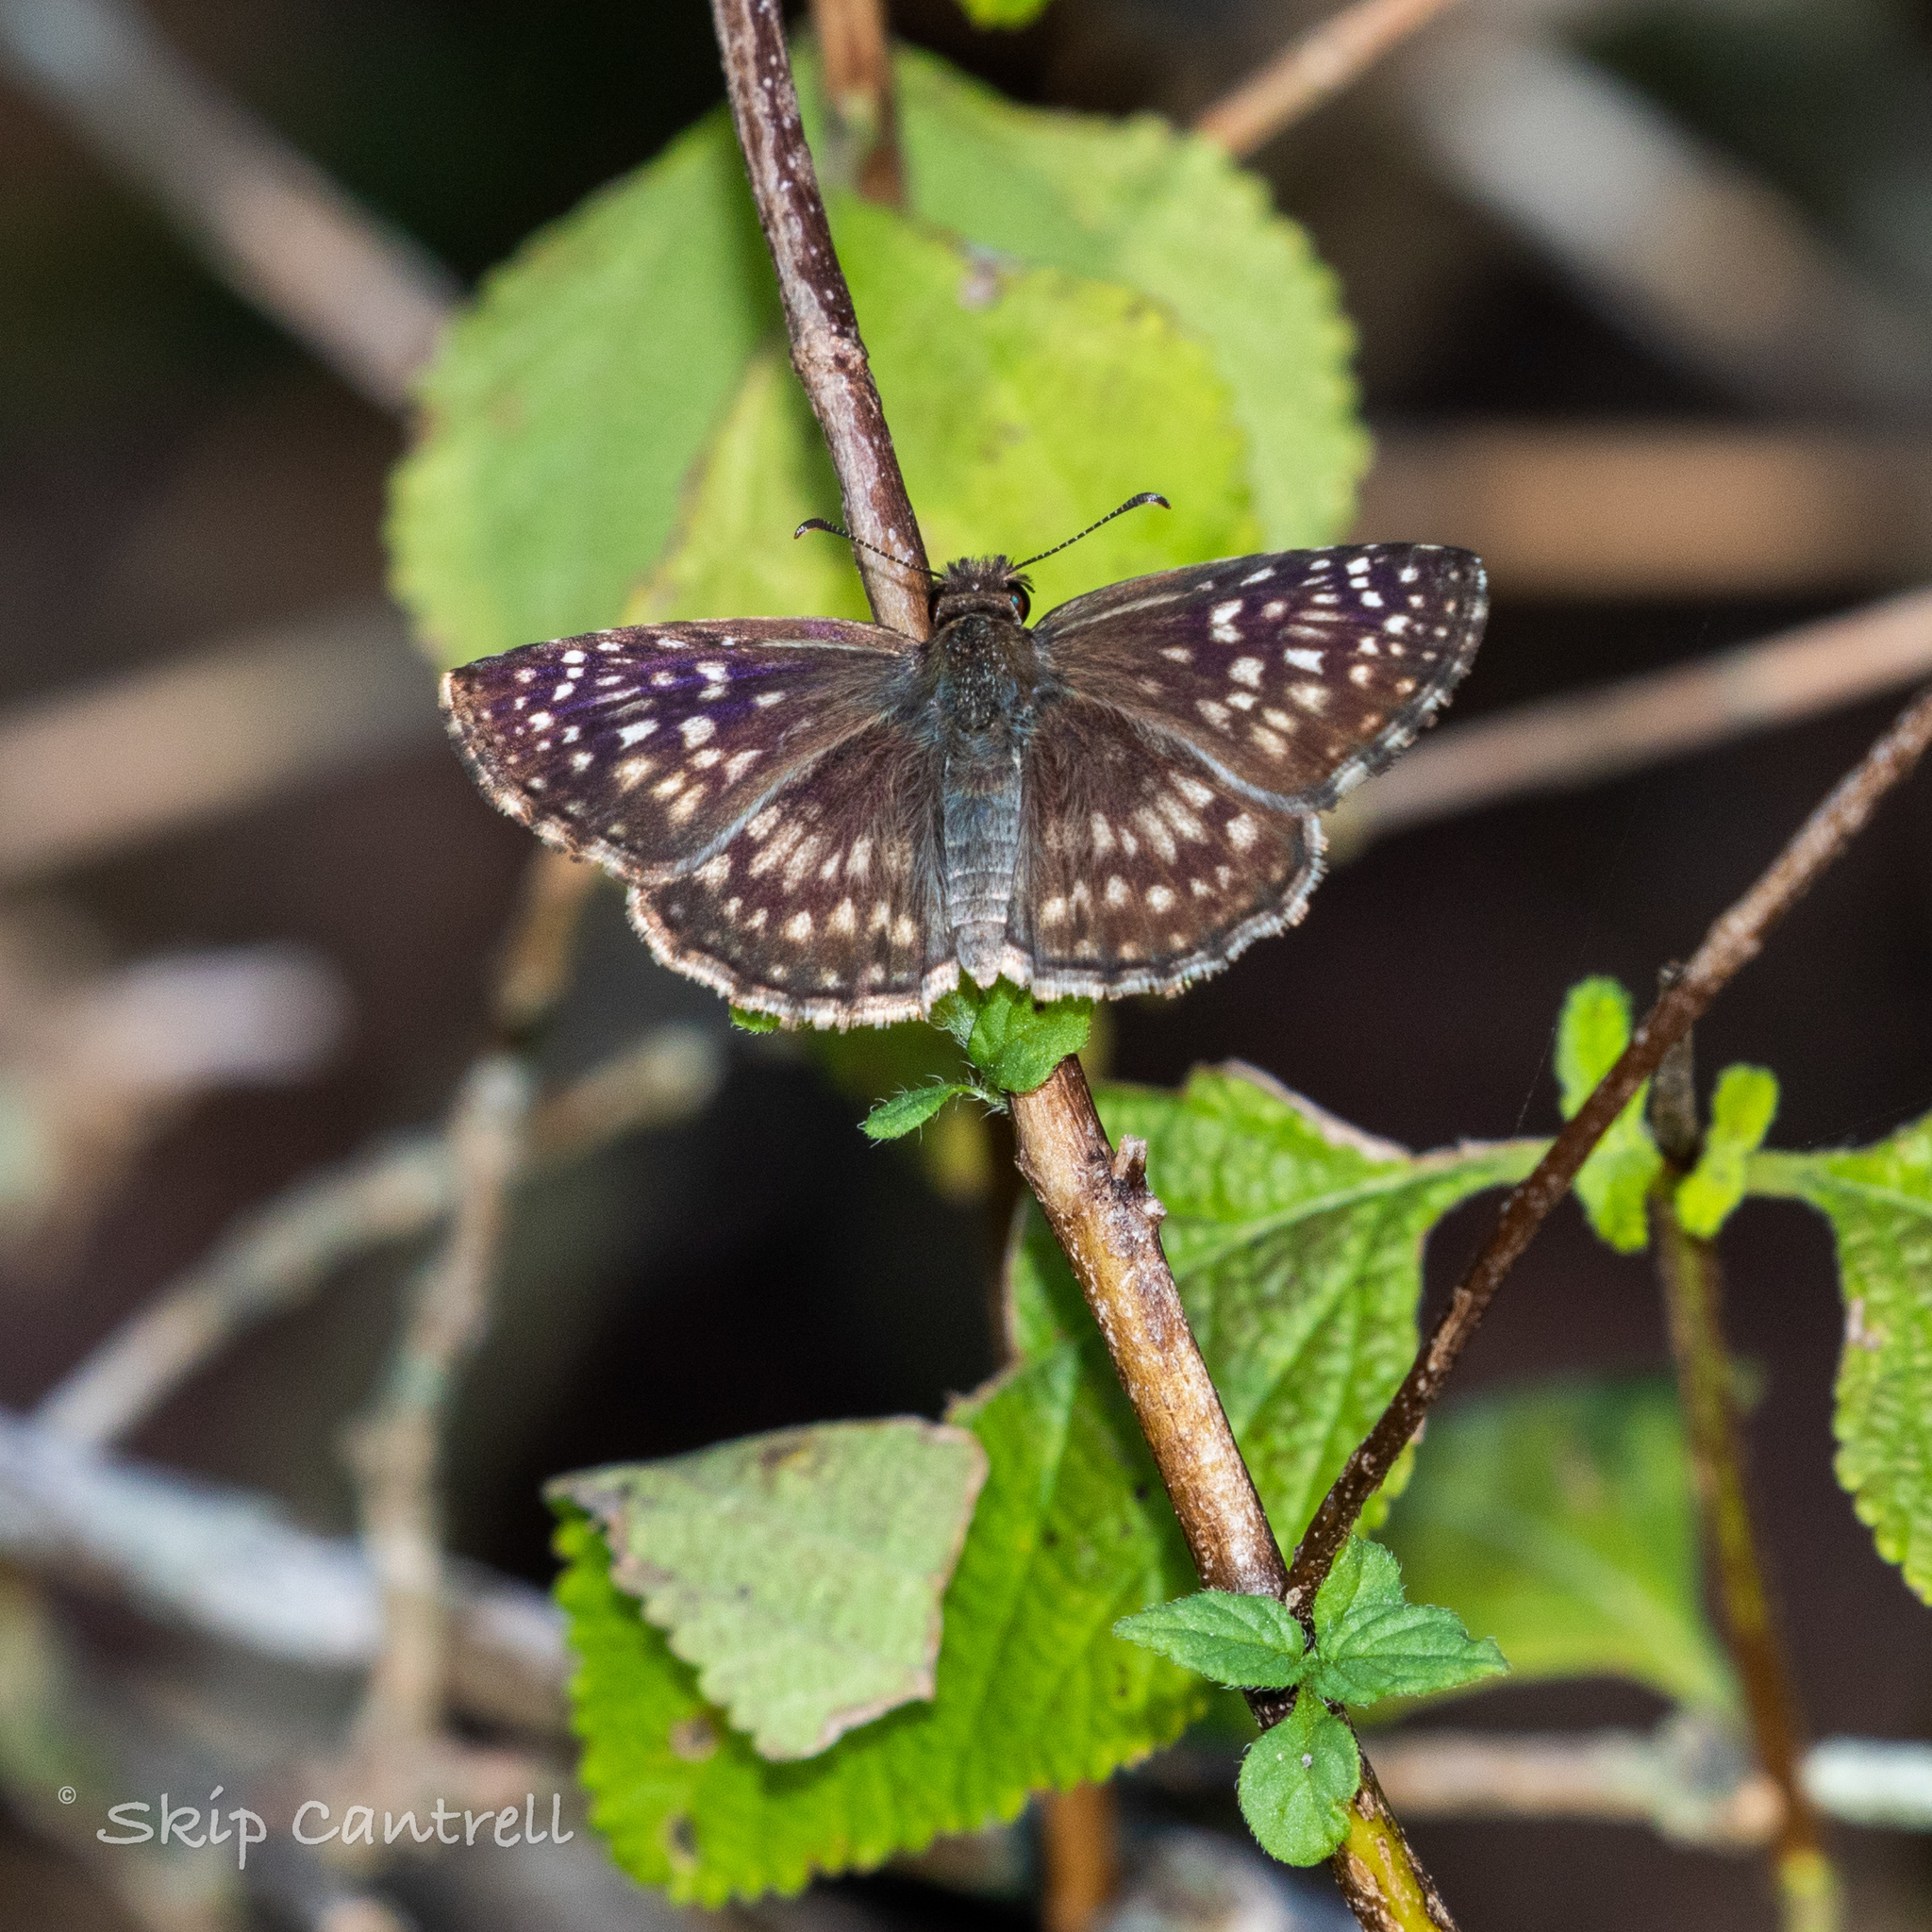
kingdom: Animalia
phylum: Arthropoda
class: Insecta
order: Lepidoptera
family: Hesperiidae
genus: Pyrgus
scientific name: Pyrgus oileus
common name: Tropical checkered-skipper
